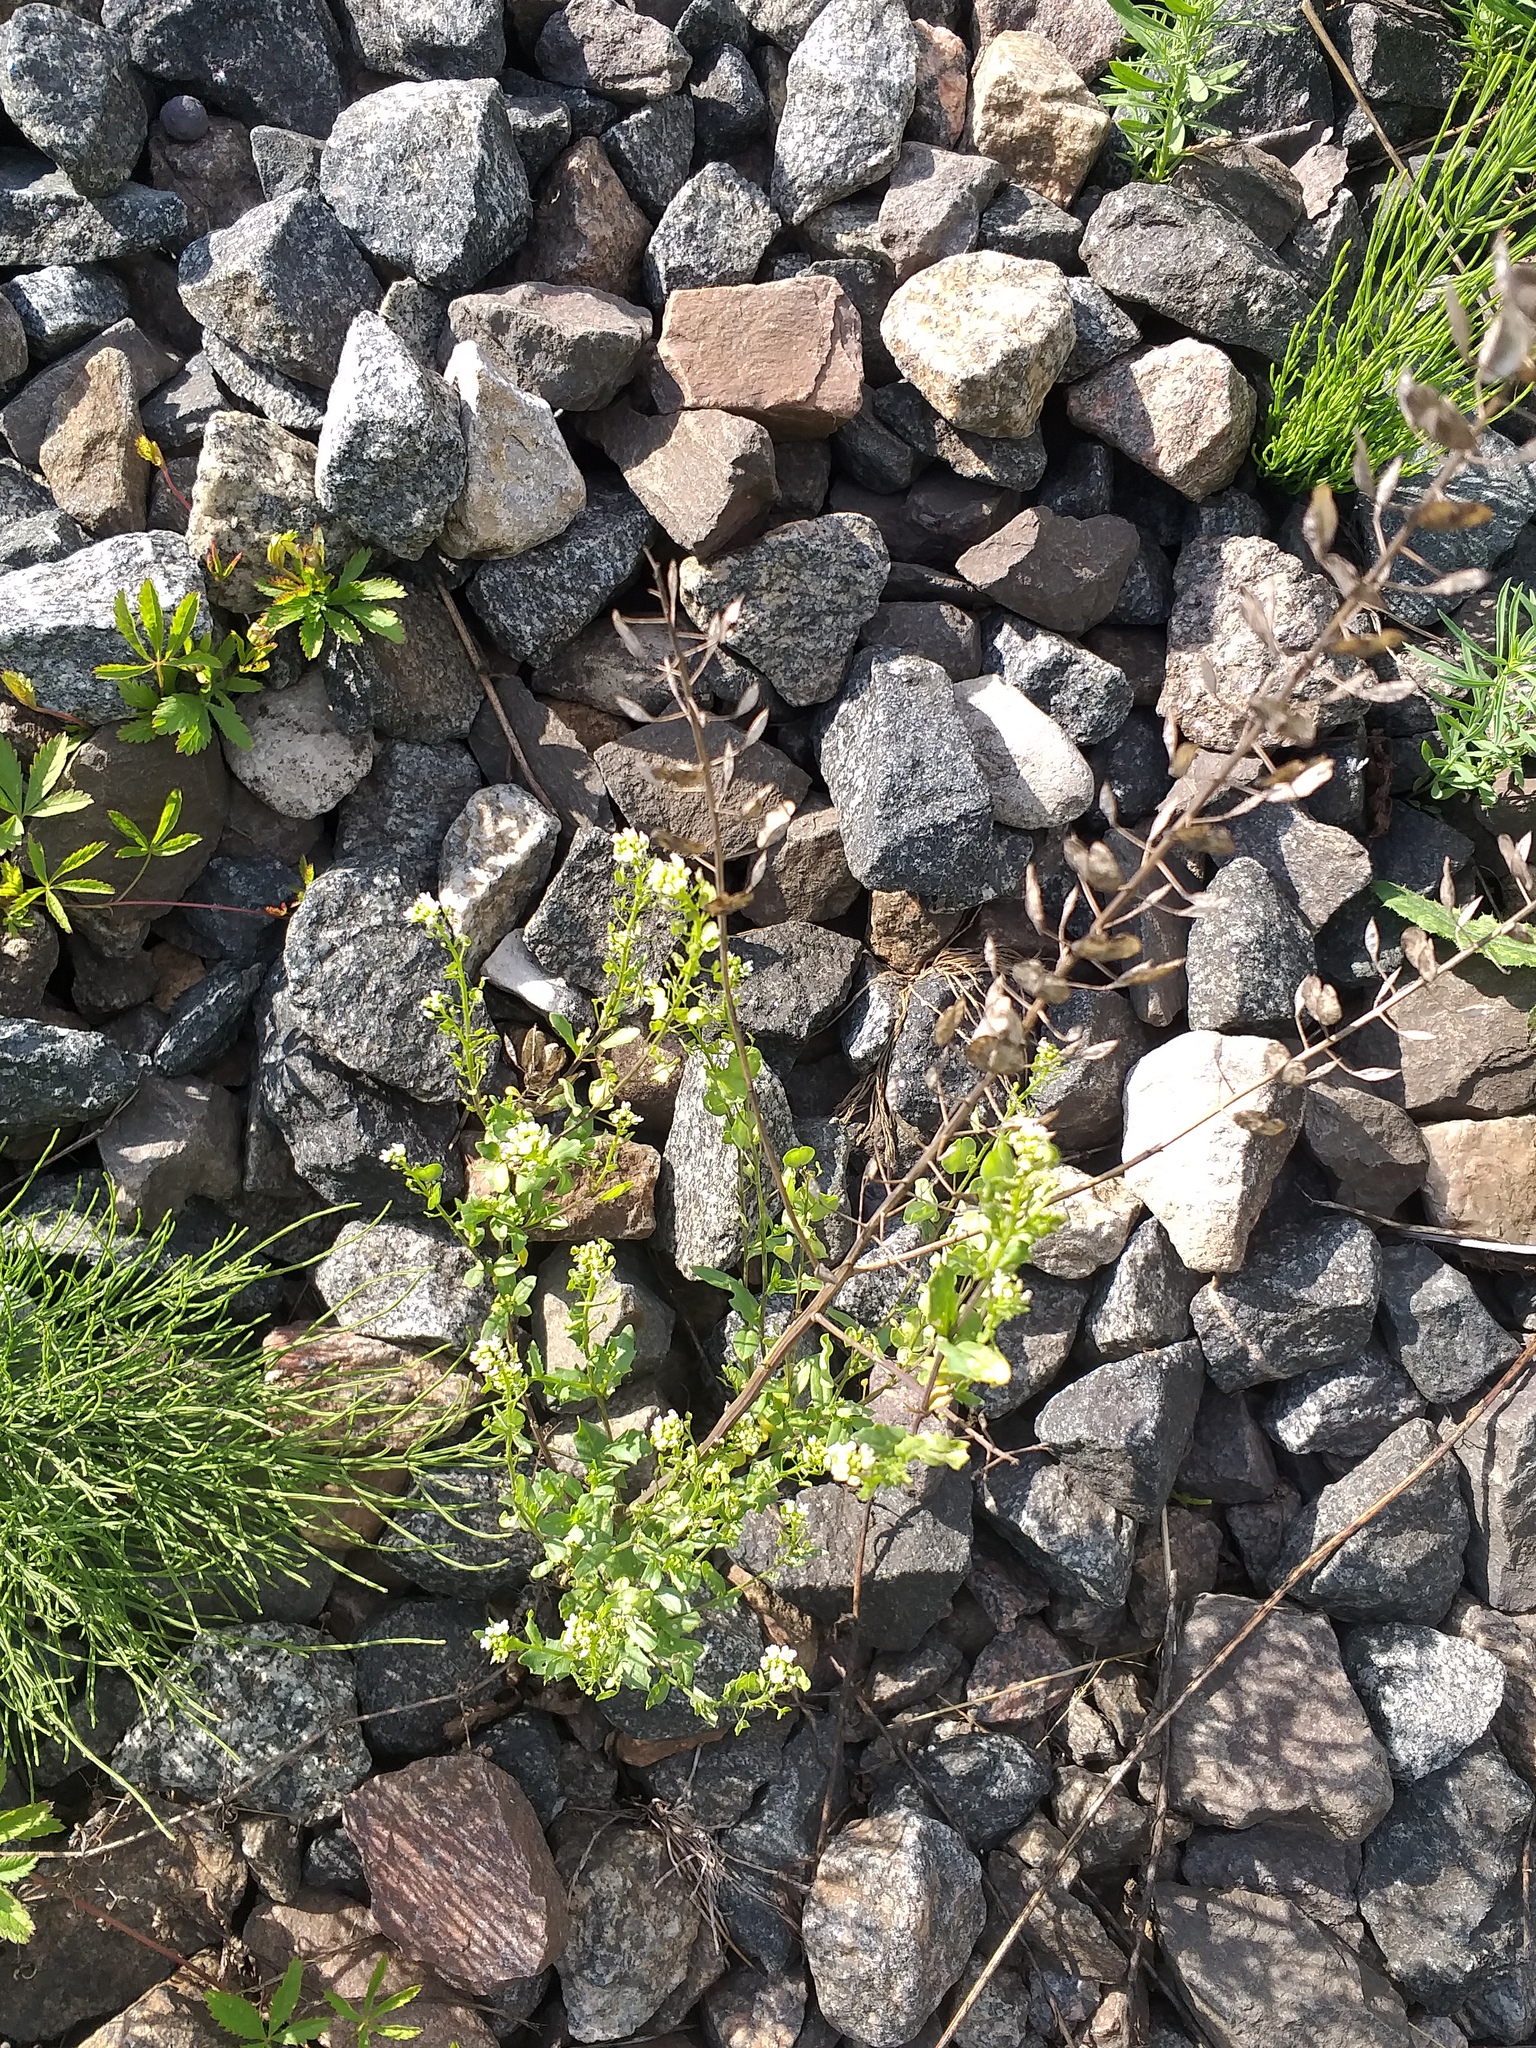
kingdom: Plantae
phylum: Tracheophyta
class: Magnoliopsida
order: Brassicales
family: Brassicaceae
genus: Thlaspi
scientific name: Thlaspi arvense
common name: Field pennycress
